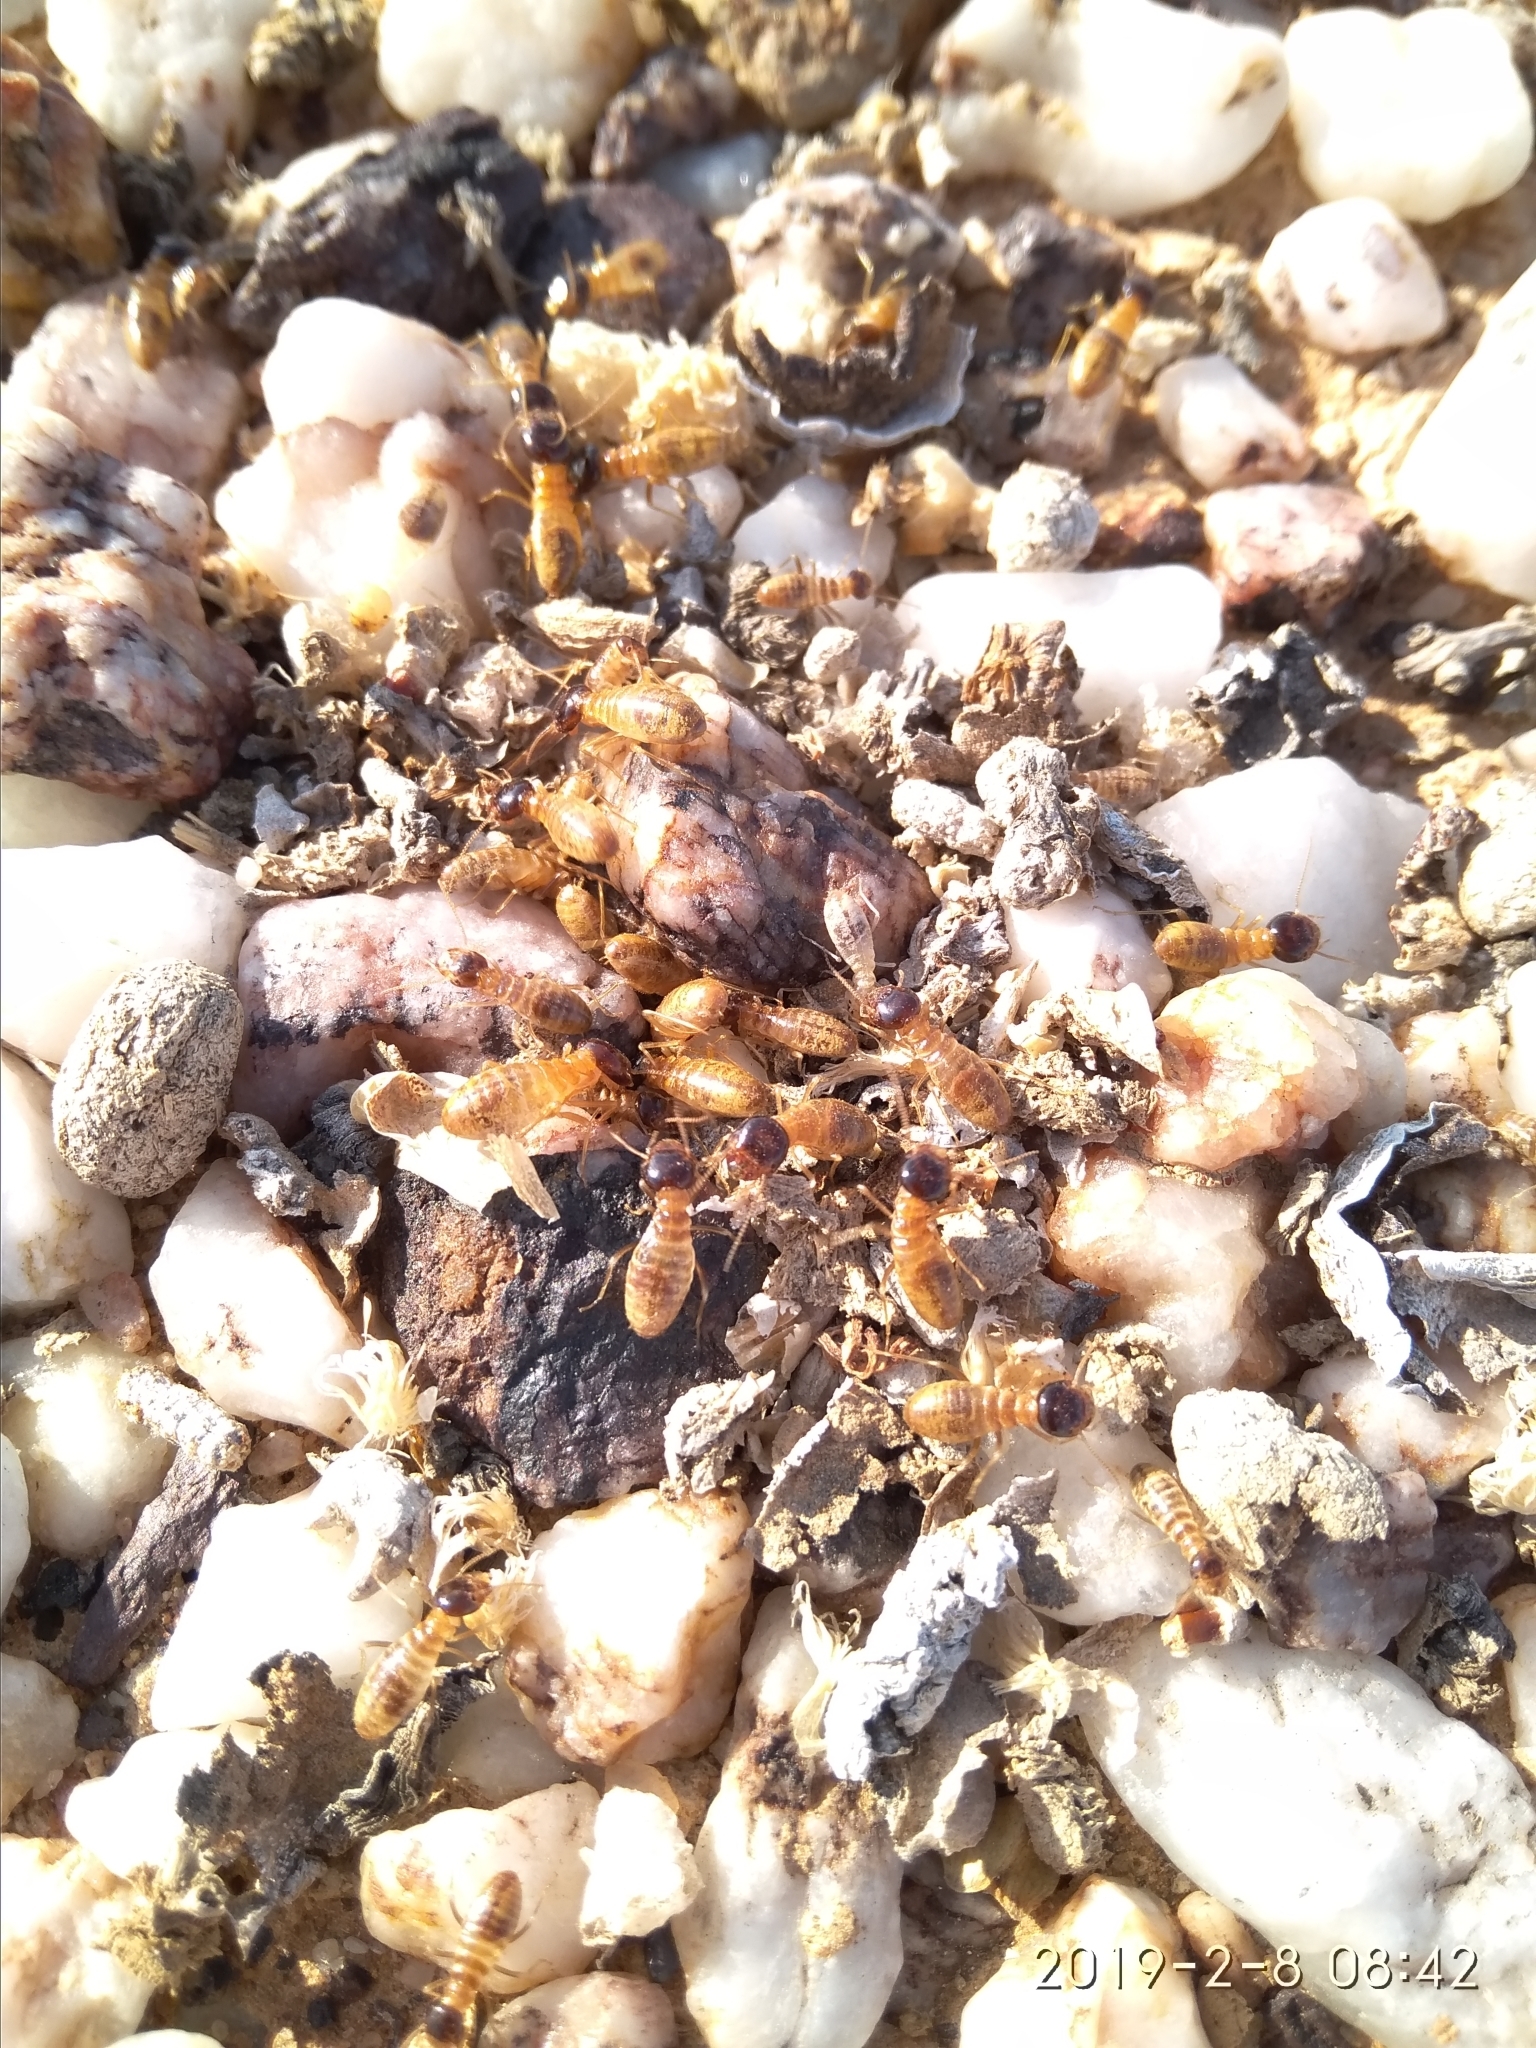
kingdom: Animalia
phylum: Arthropoda
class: Insecta
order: Blattodea
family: Hodotermitidae
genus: Microhodotermes
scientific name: Microhodotermes viator
